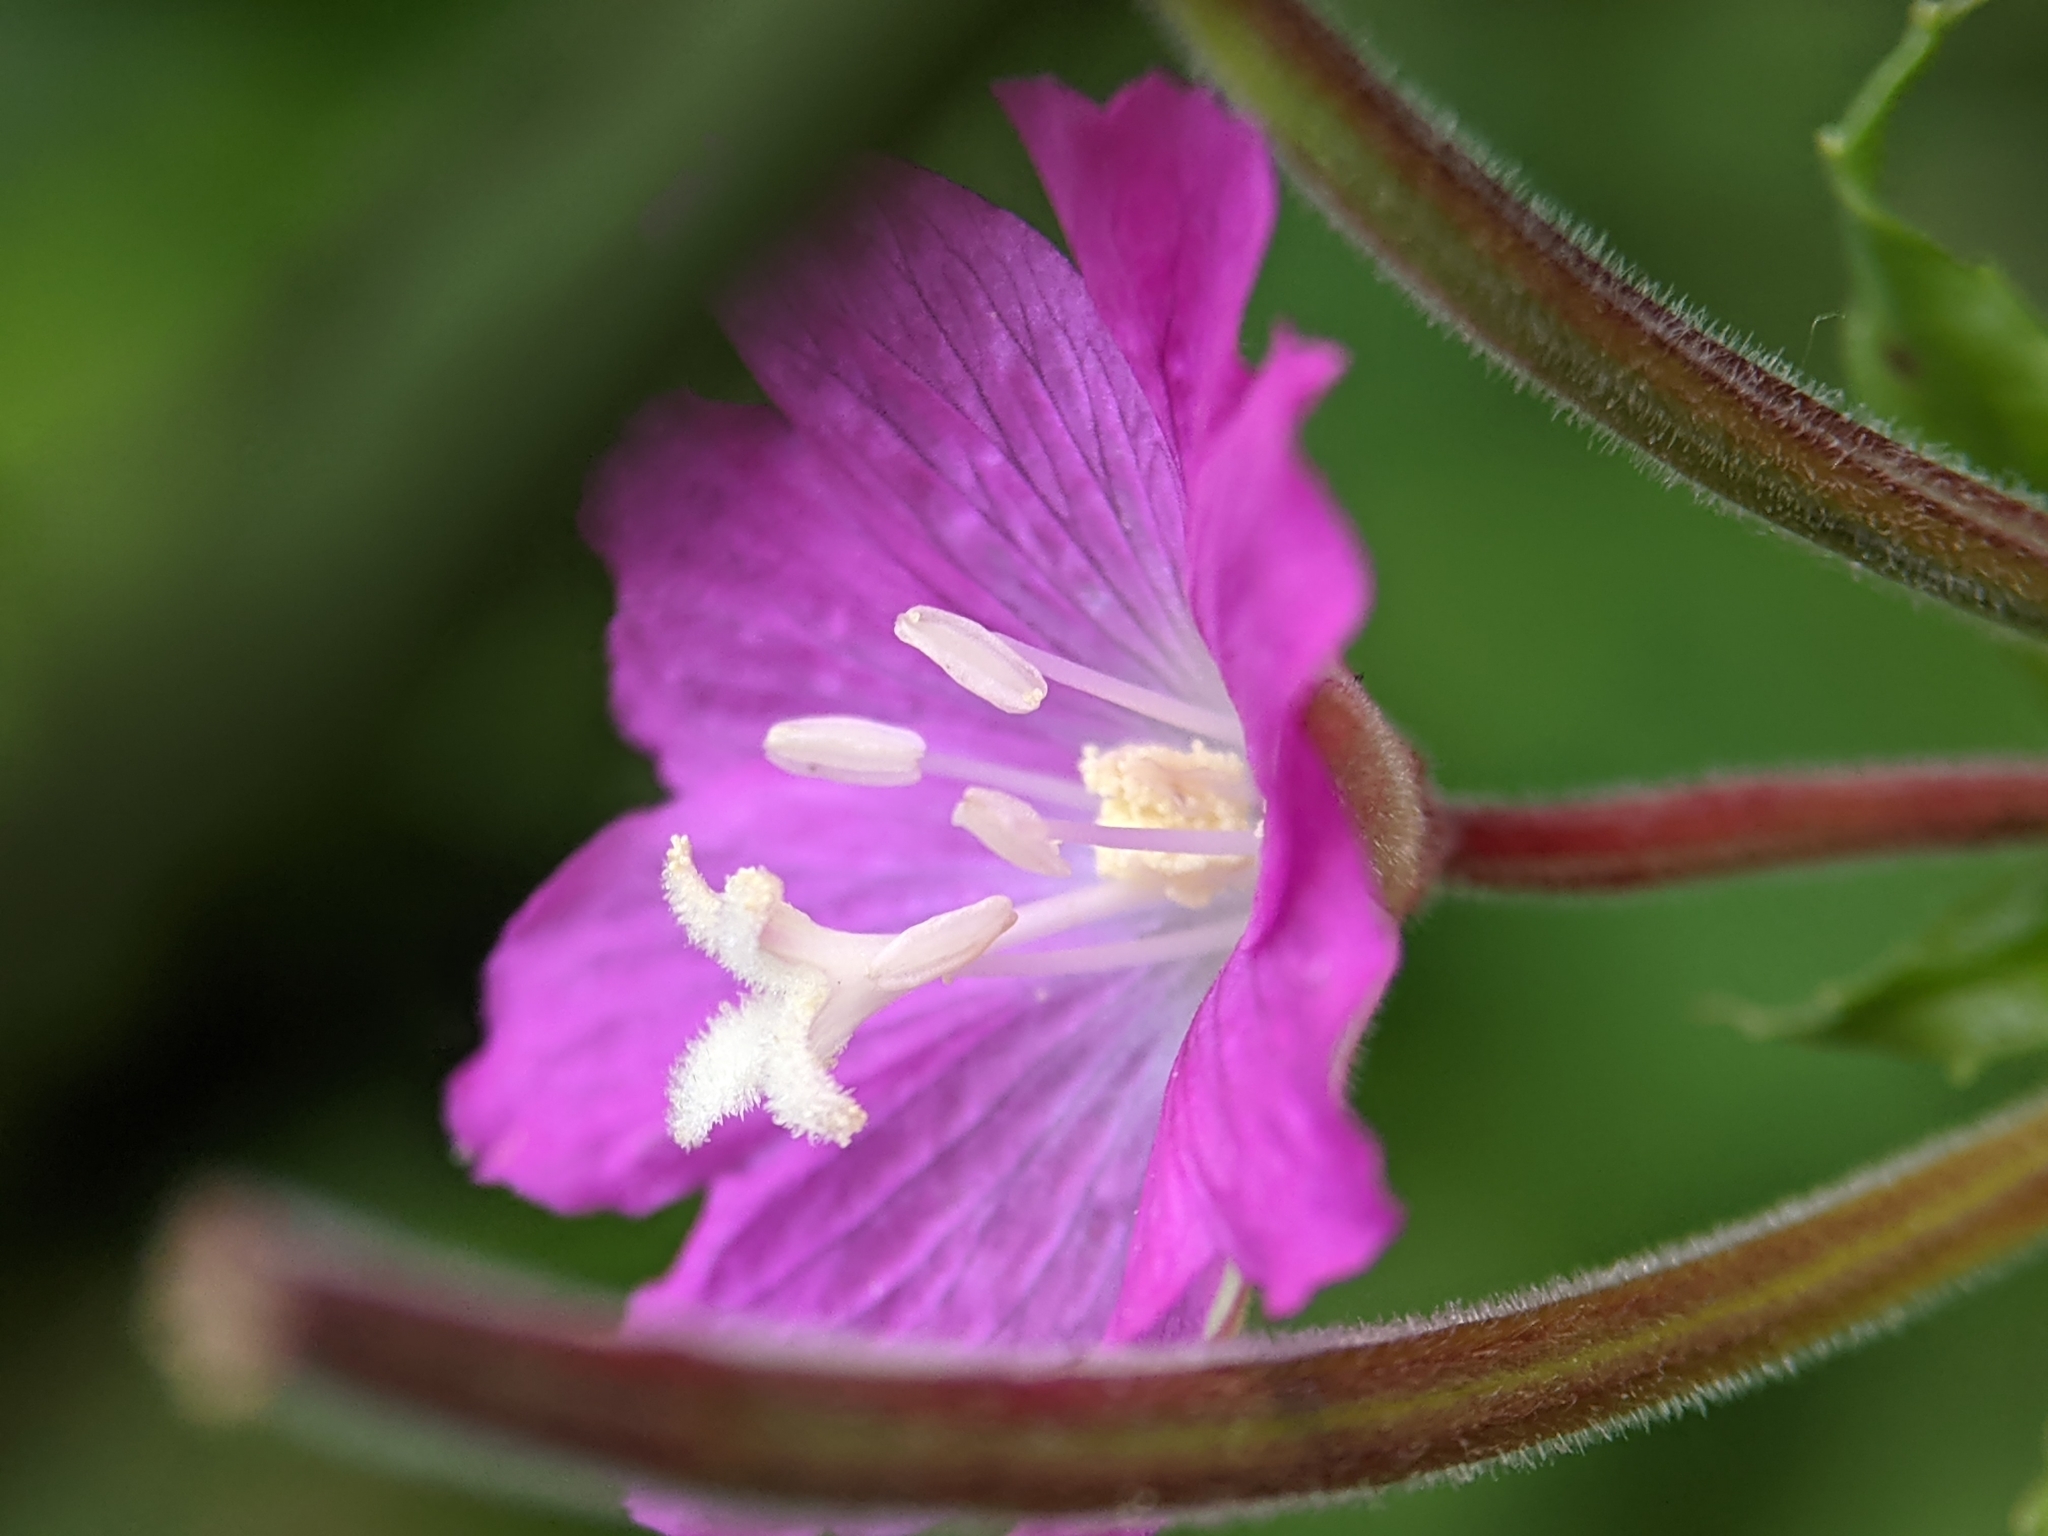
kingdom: Plantae
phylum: Tracheophyta
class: Magnoliopsida
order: Myrtales
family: Onagraceae
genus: Epilobium
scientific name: Epilobium hirsutum
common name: Great willowherb
